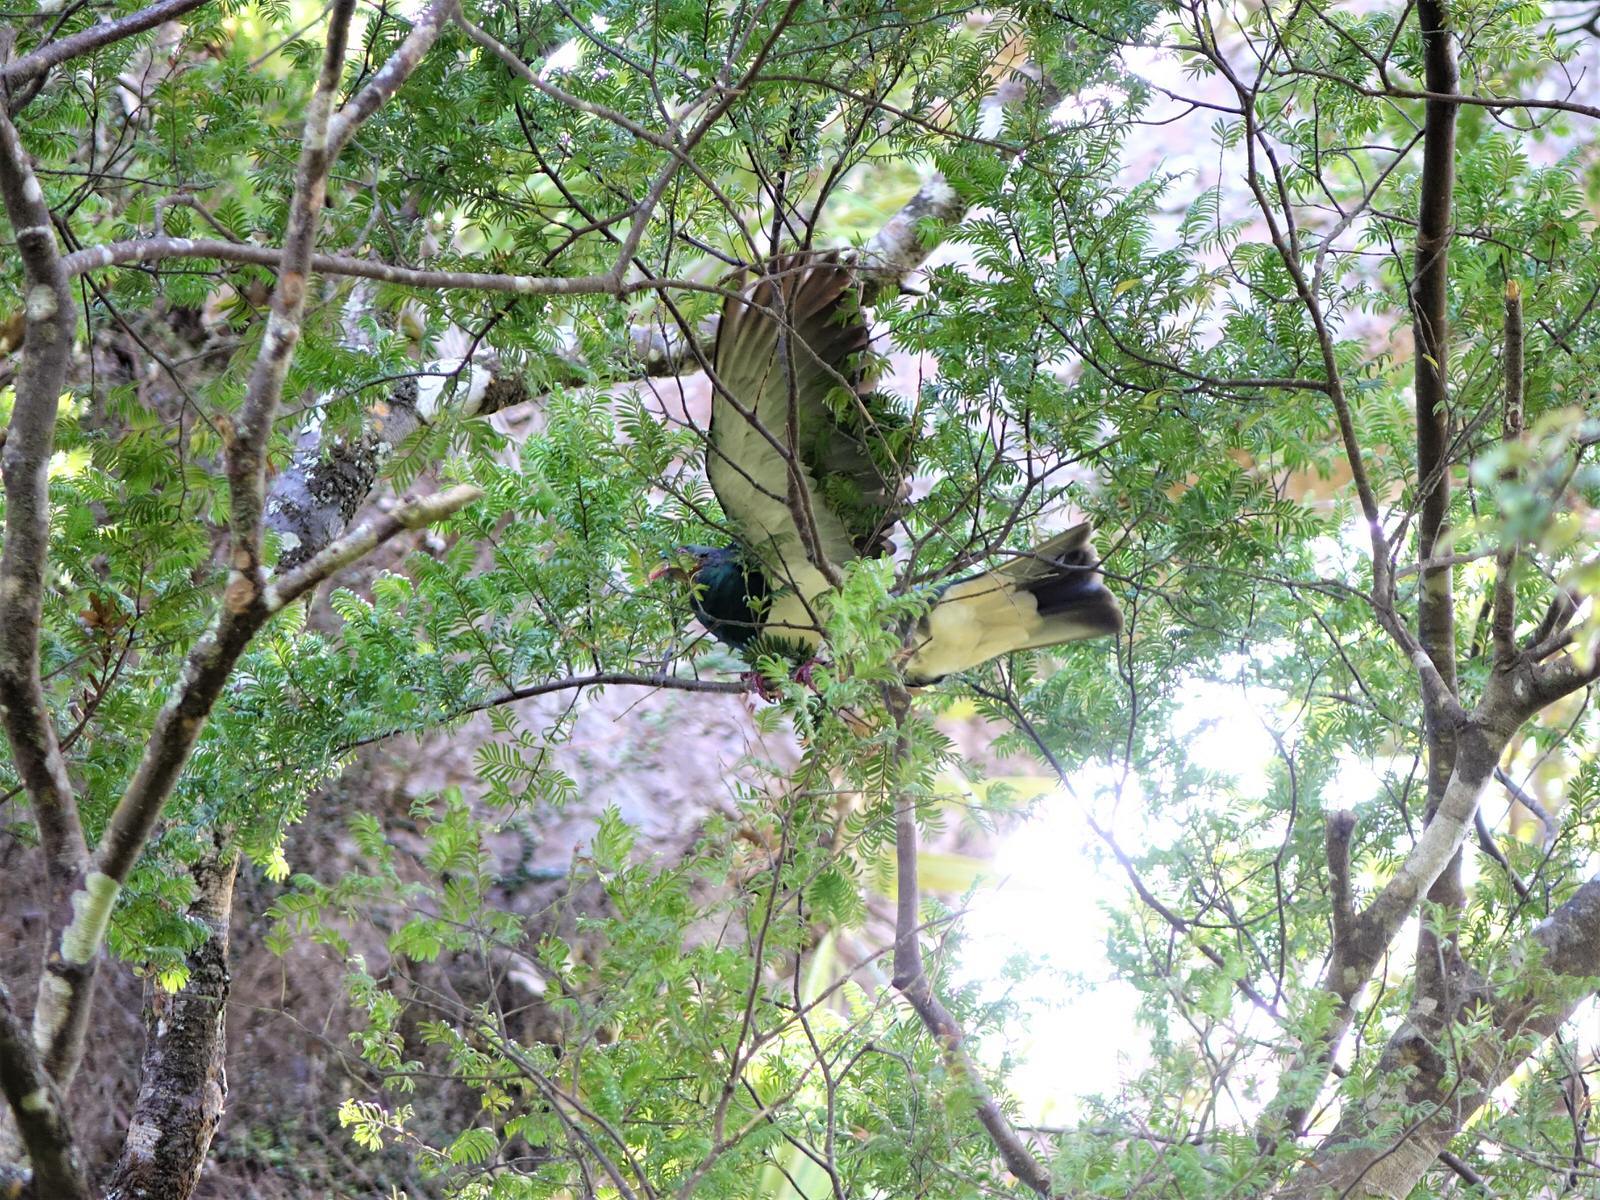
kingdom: Animalia
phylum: Chordata
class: Aves
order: Columbiformes
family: Columbidae
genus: Hemiphaga
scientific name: Hemiphaga novaeseelandiae
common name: New zealand pigeon
